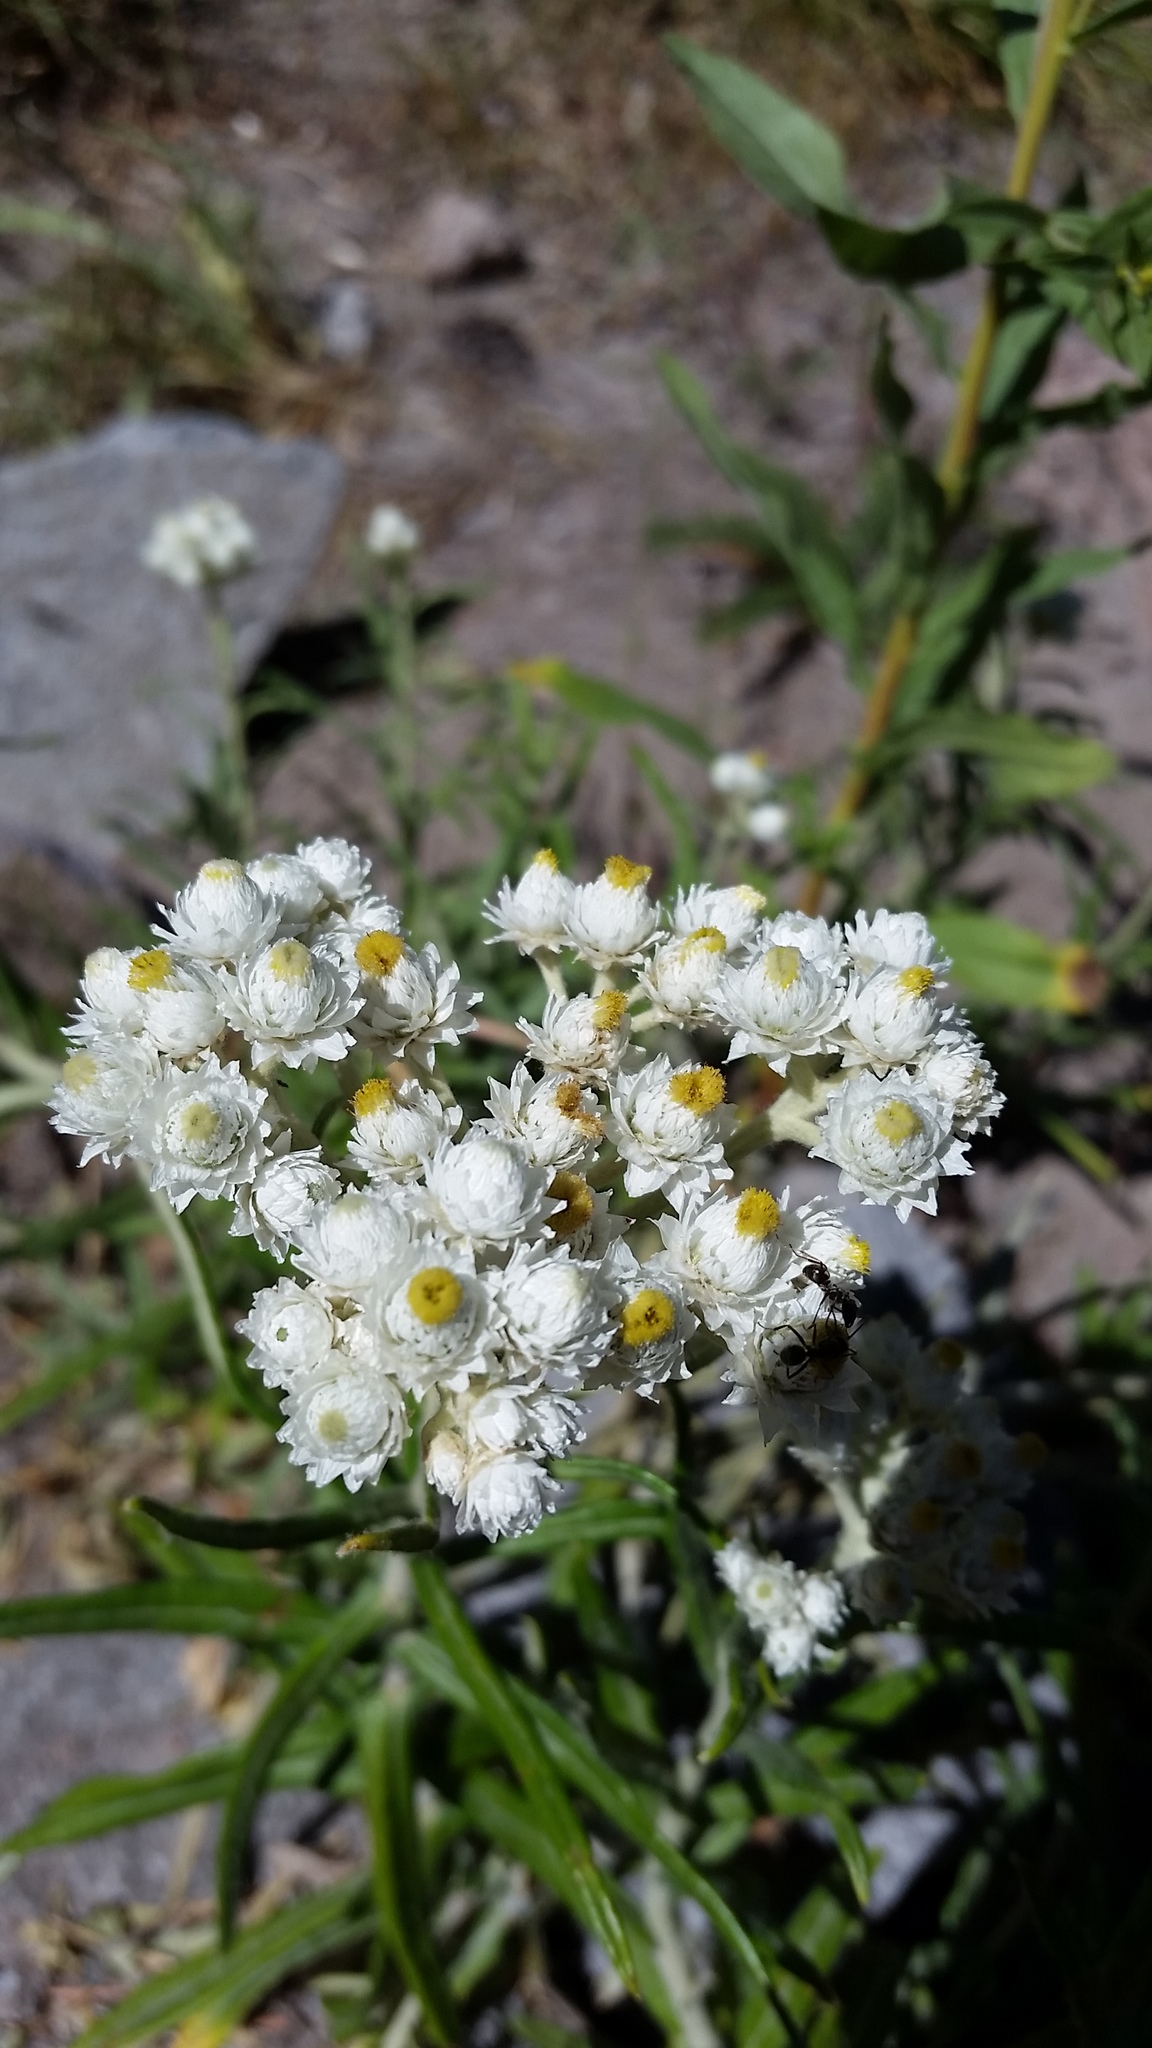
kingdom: Plantae
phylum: Tracheophyta
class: Magnoliopsida
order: Asterales
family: Asteraceae
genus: Anaphalis
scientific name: Anaphalis margaritacea
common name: Pearly everlasting
